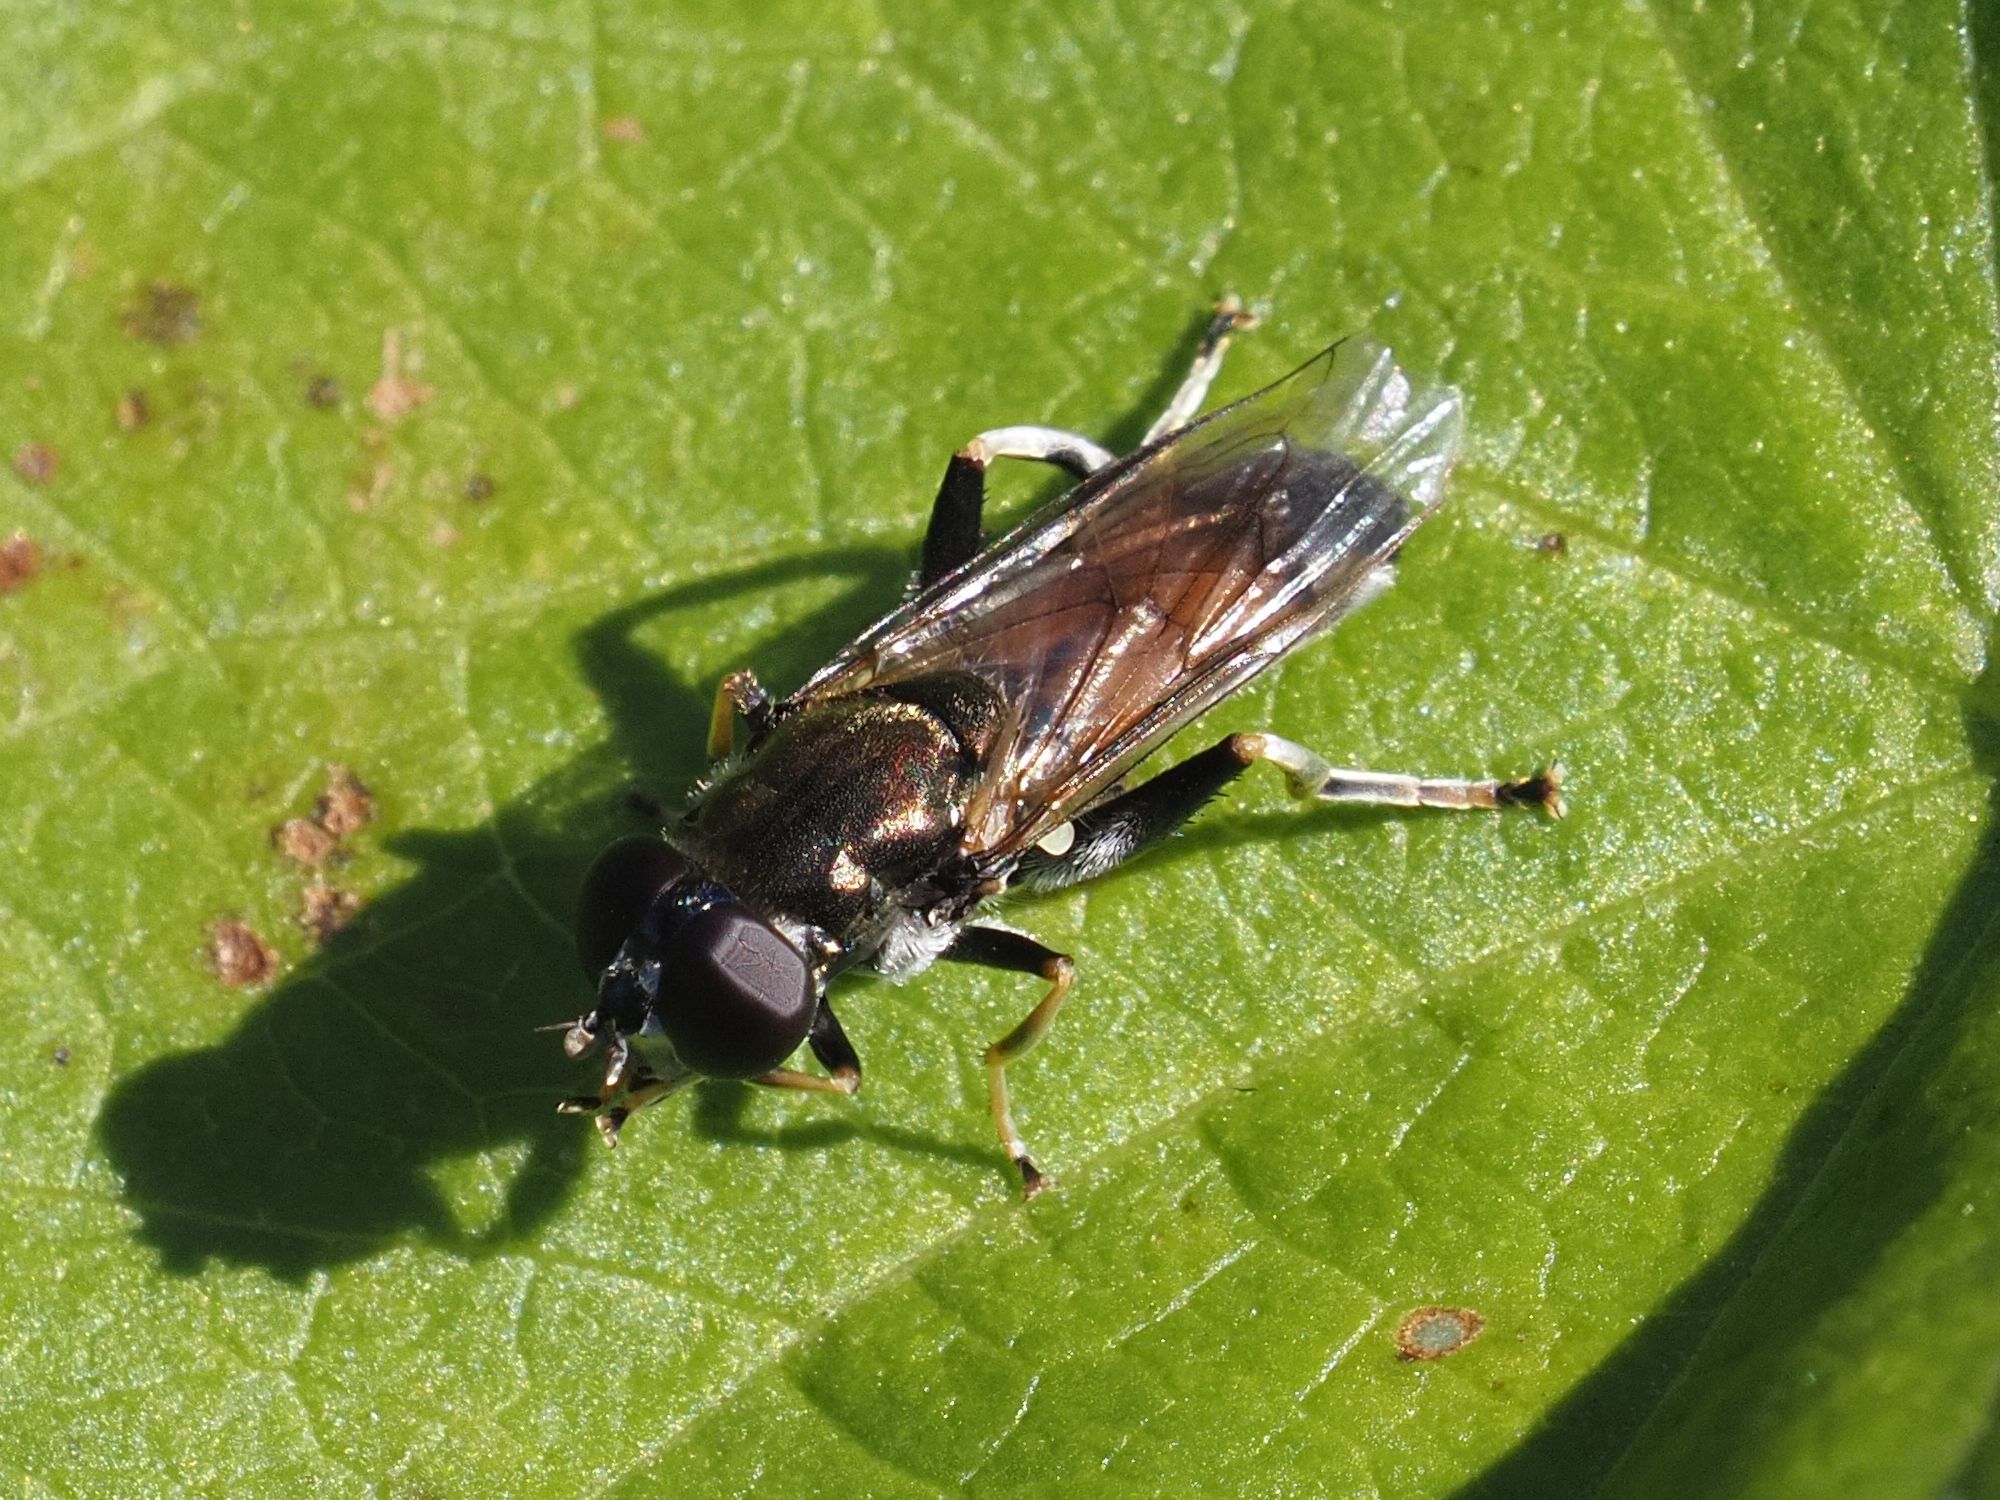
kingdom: Animalia
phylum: Arthropoda
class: Insecta
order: Diptera
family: Syrphidae
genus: Xylota
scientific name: Xylota segnis
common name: Brown-toed forest fly
